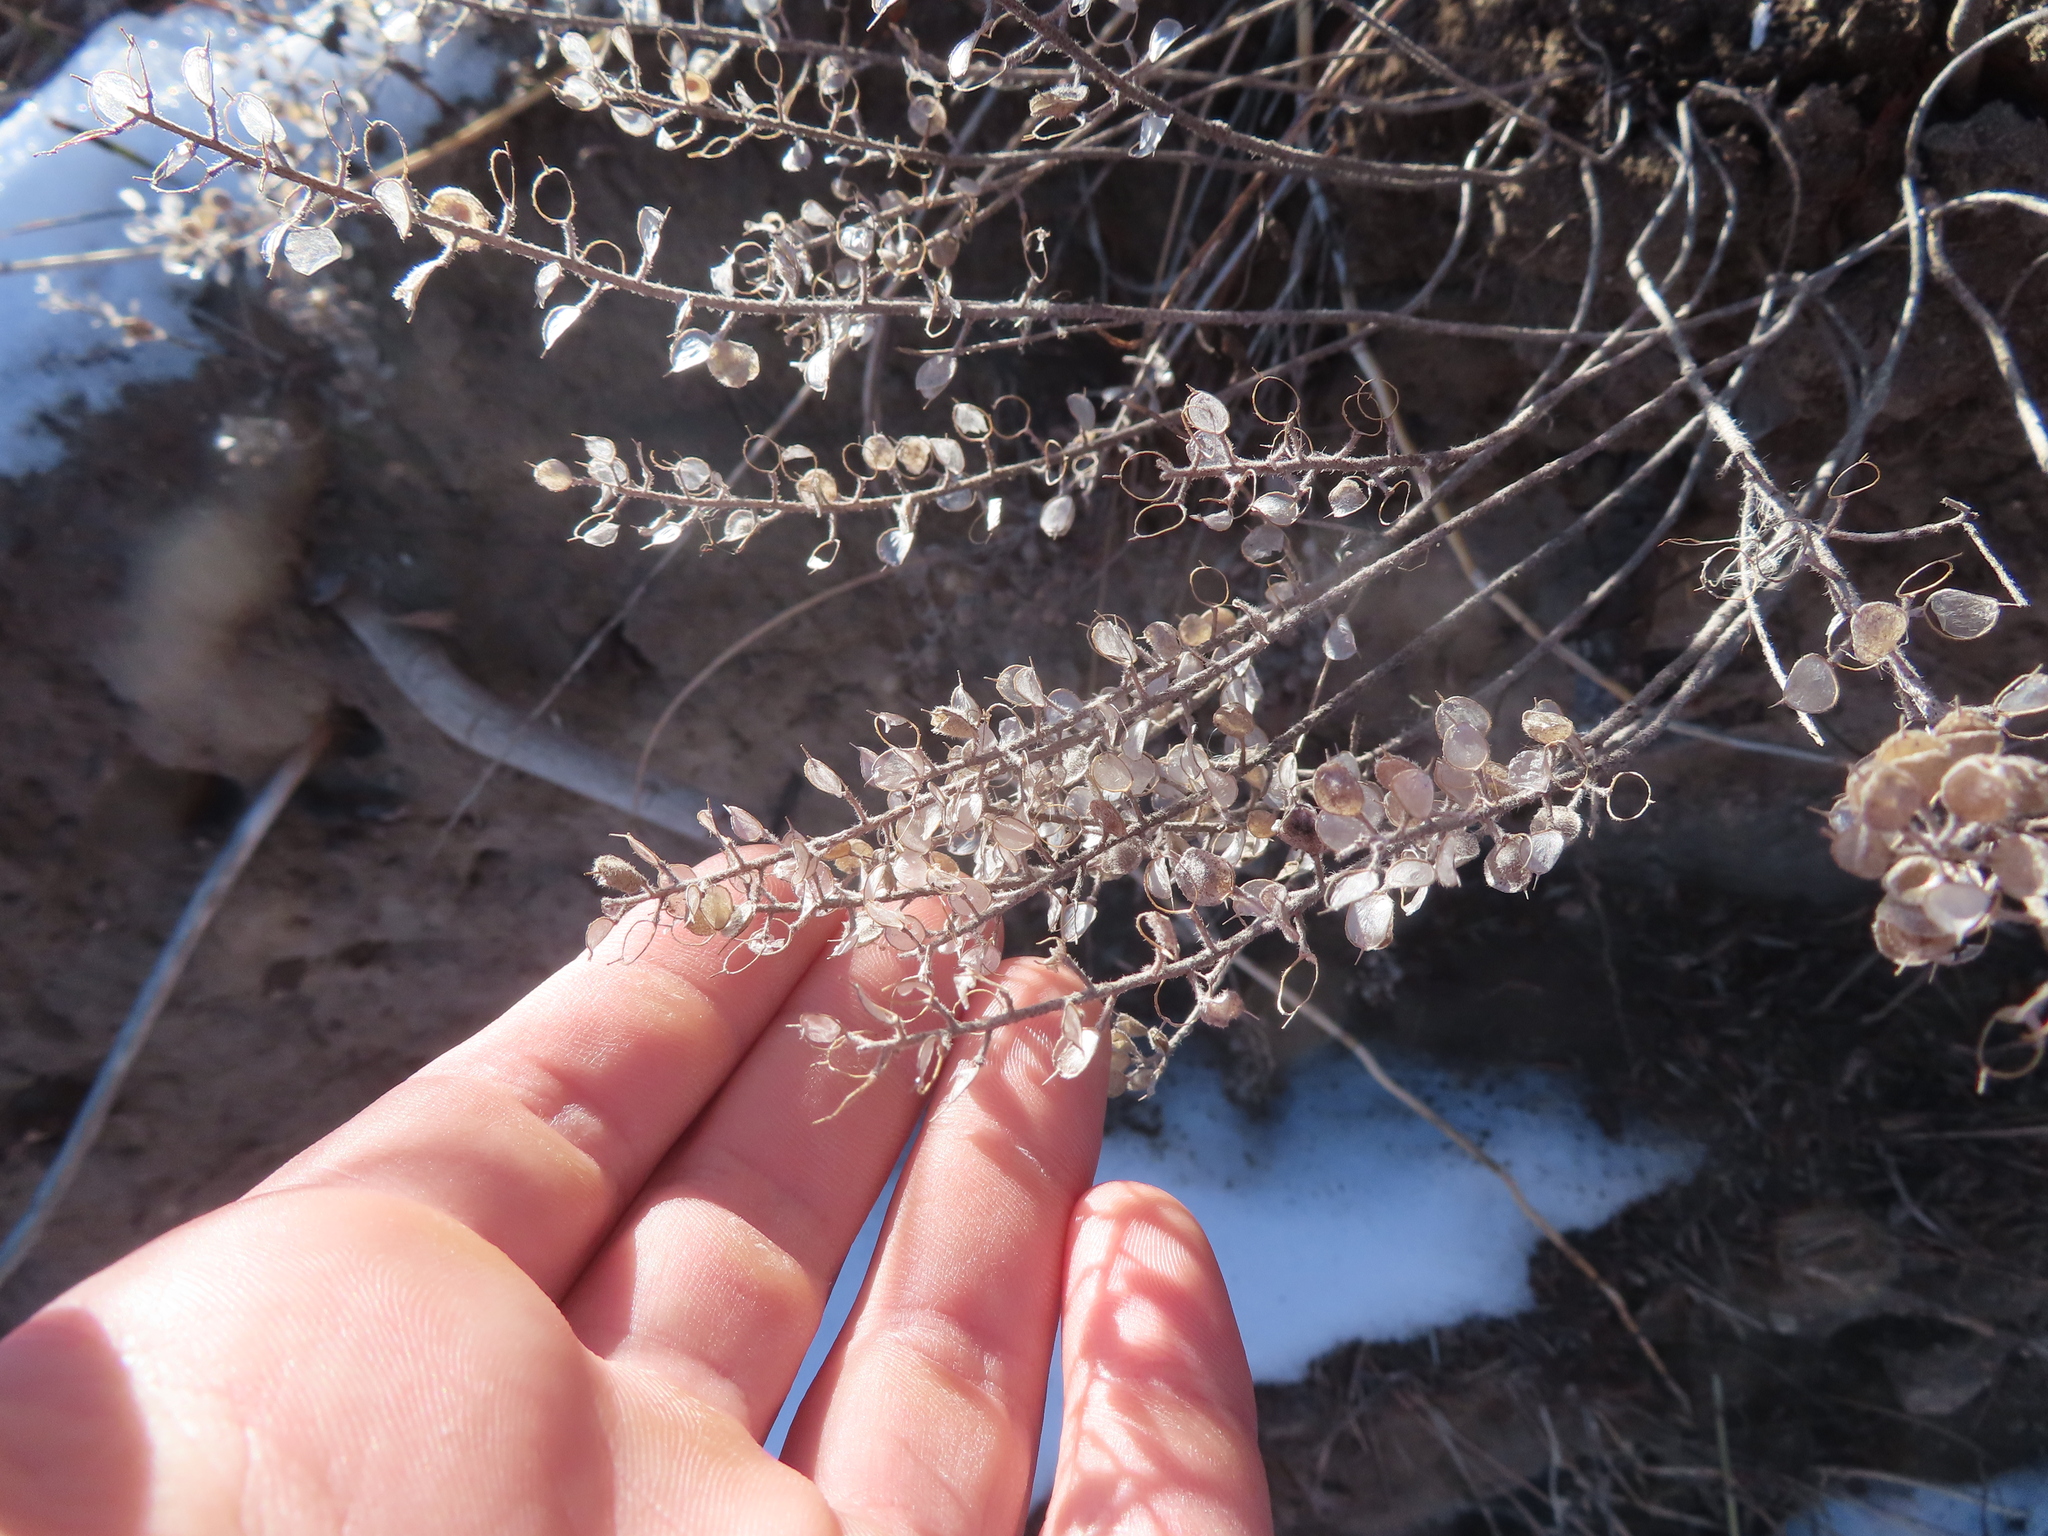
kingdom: Plantae
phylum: Tracheophyta
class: Magnoliopsida
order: Brassicales
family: Brassicaceae
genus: Alyssum
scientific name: Alyssum simplex
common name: Alyssum
